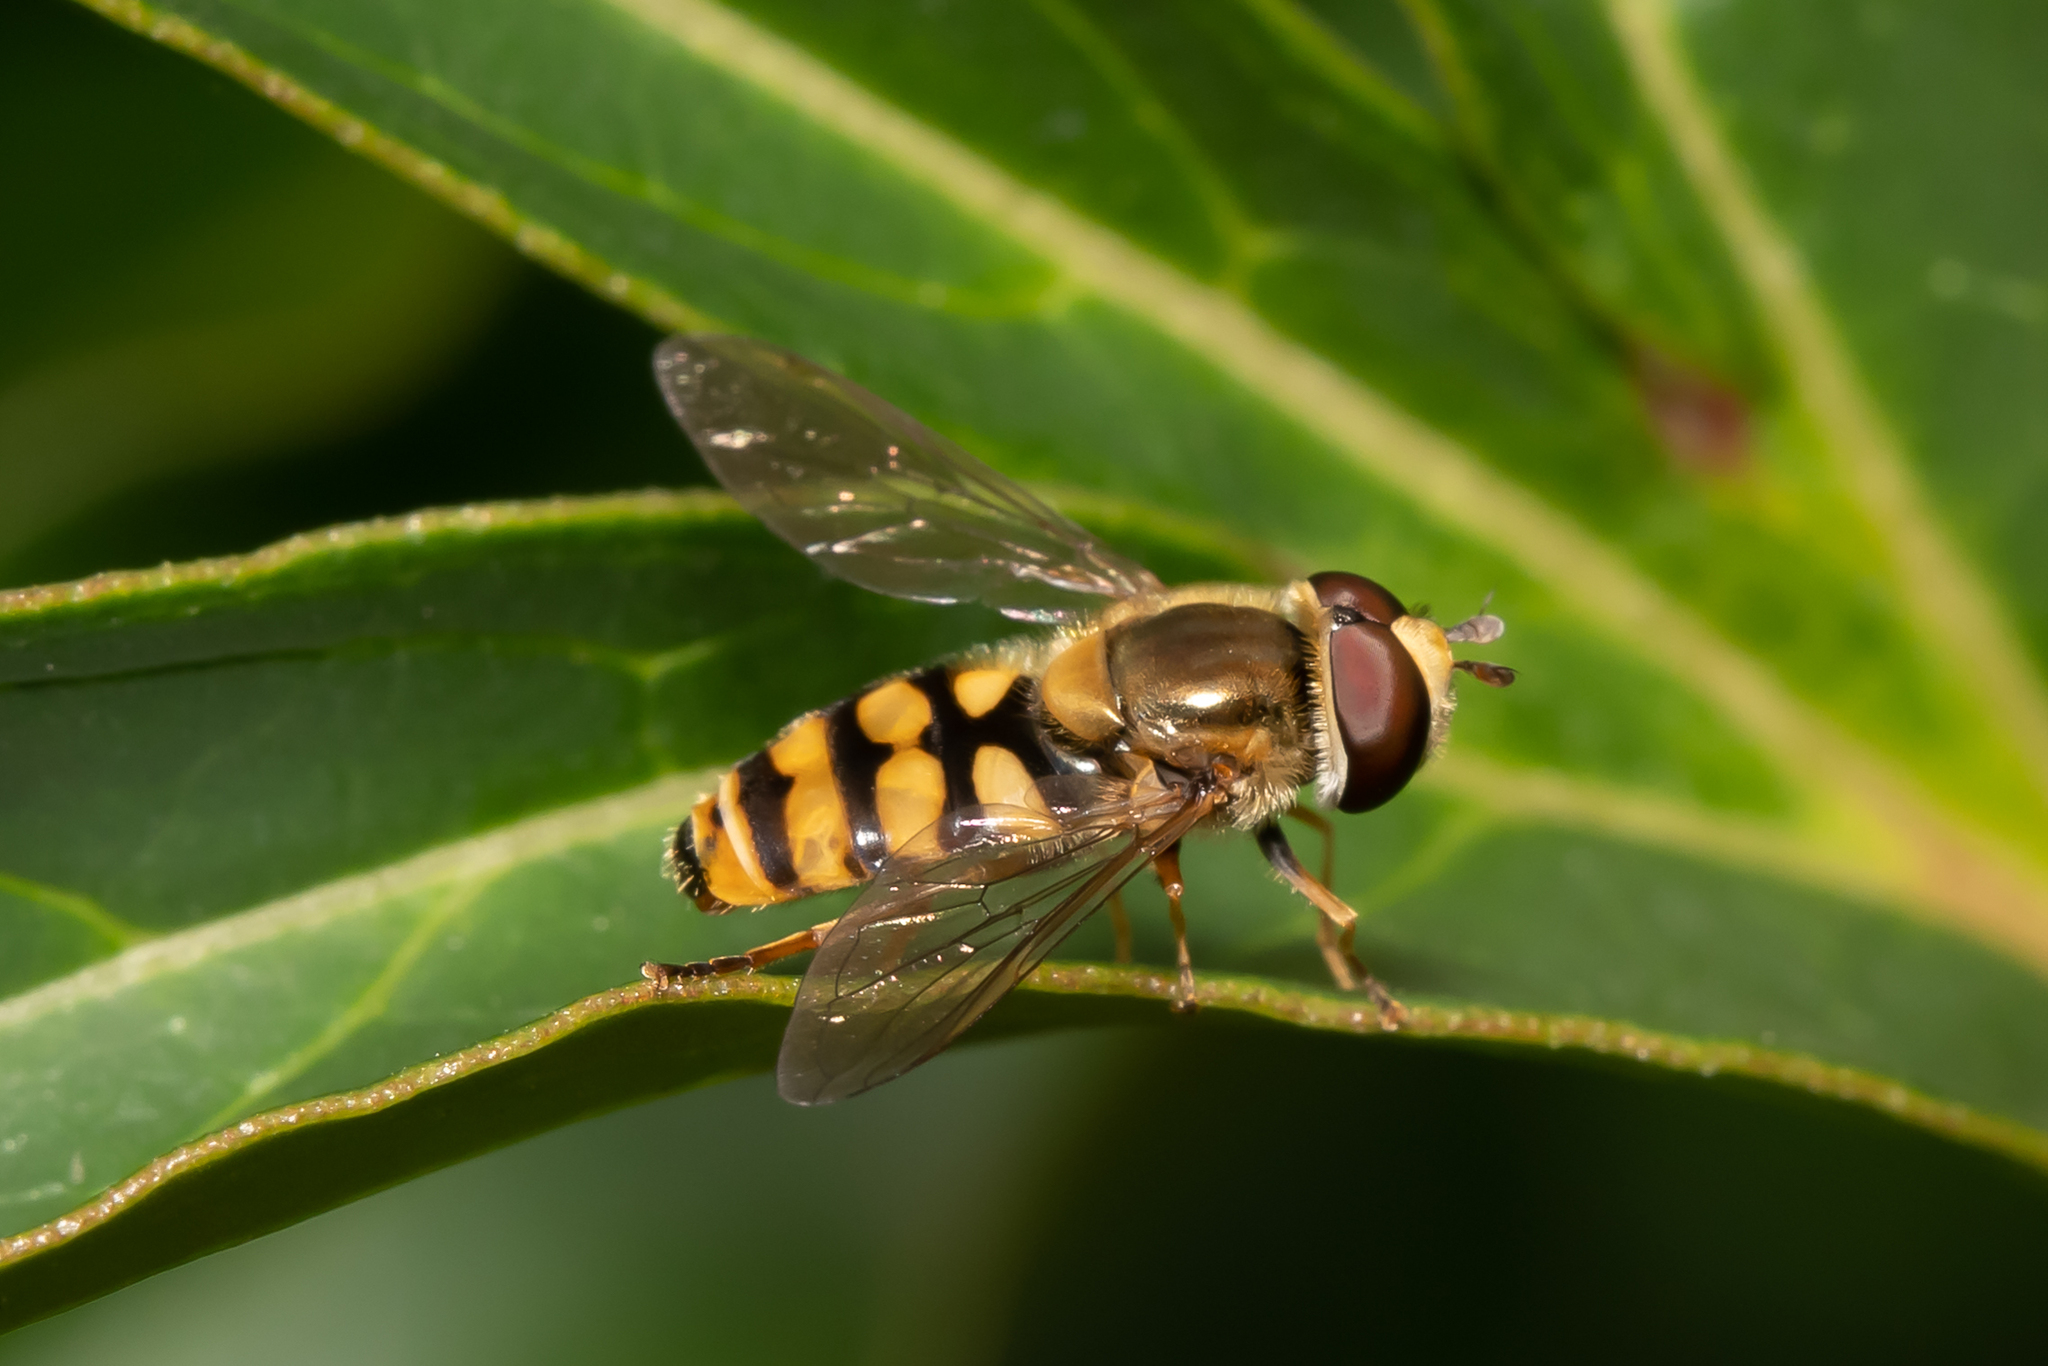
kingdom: Animalia
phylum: Arthropoda
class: Insecta
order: Diptera
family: Syrphidae
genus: Eupeodes
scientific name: Eupeodes corollae
